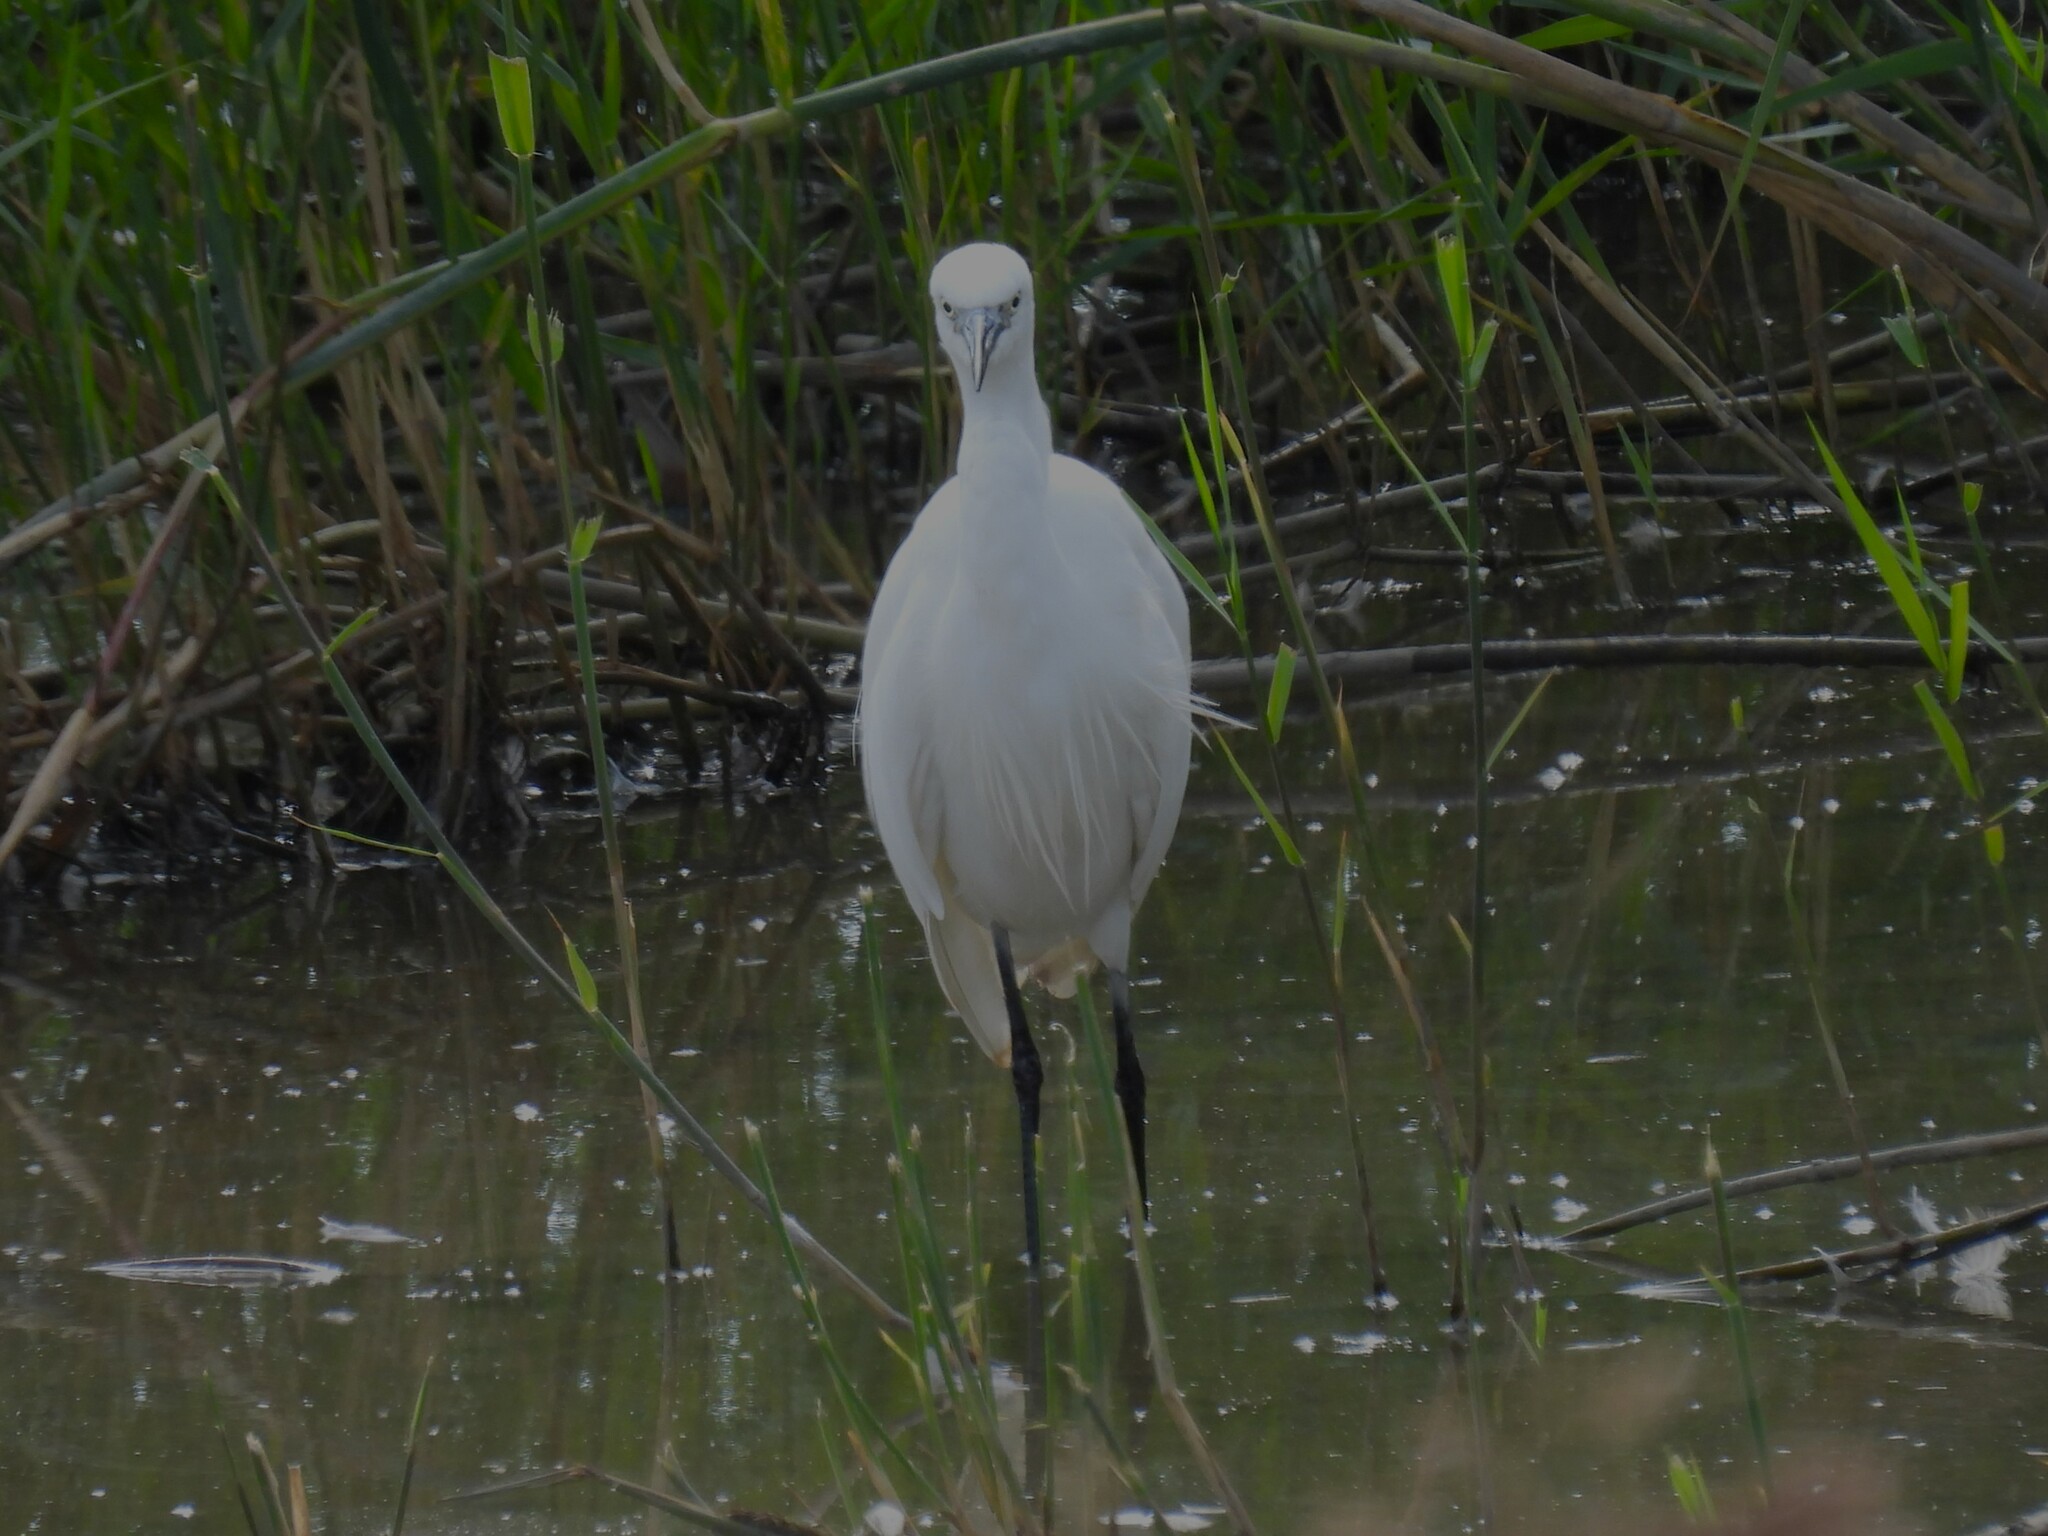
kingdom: Animalia
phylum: Chordata
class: Aves
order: Pelecaniformes
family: Ardeidae
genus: Egretta
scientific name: Egretta garzetta
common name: Little egret
